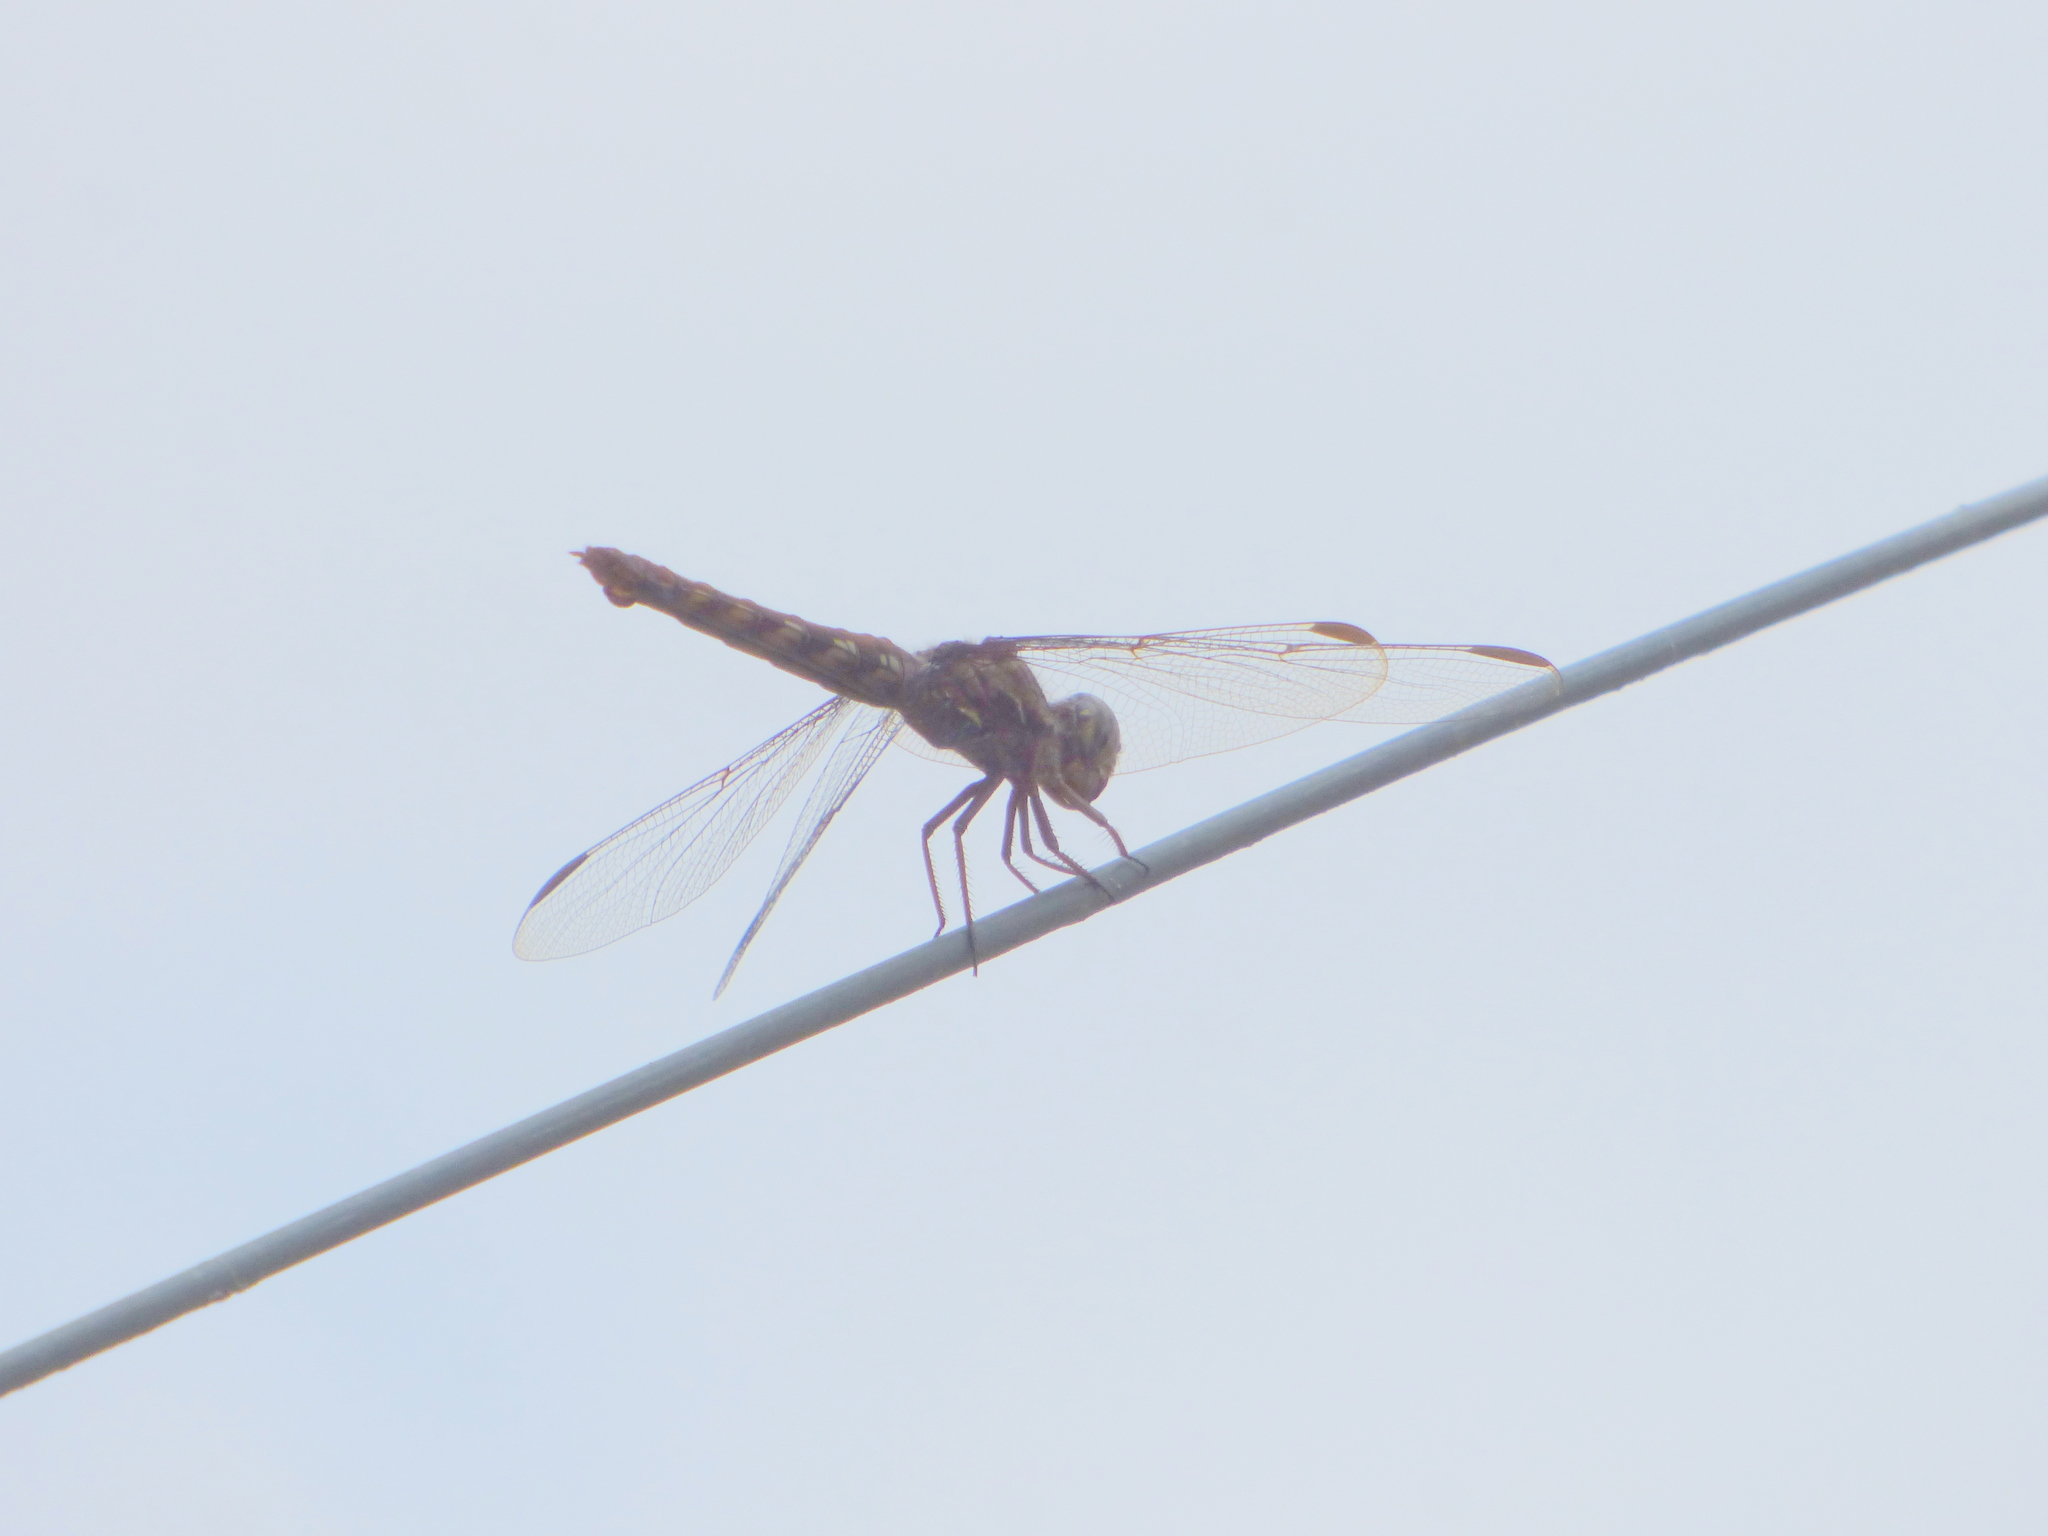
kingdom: Animalia
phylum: Arthropoda
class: Insecta
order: Odonata
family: Libellulidae
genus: Orthemis
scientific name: Orthemis nodiplaga
